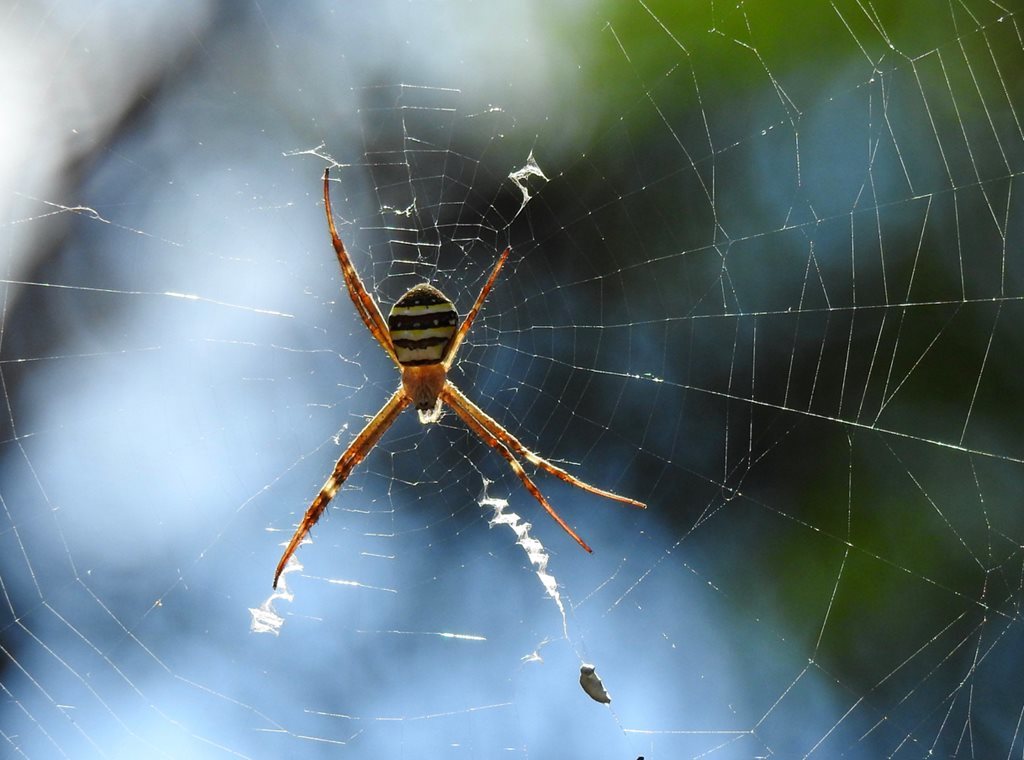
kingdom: Animalia
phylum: Arthropoda
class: Arachnida
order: Araneae
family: Araneidae
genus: Argiope
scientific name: Argiope keyserlingi
